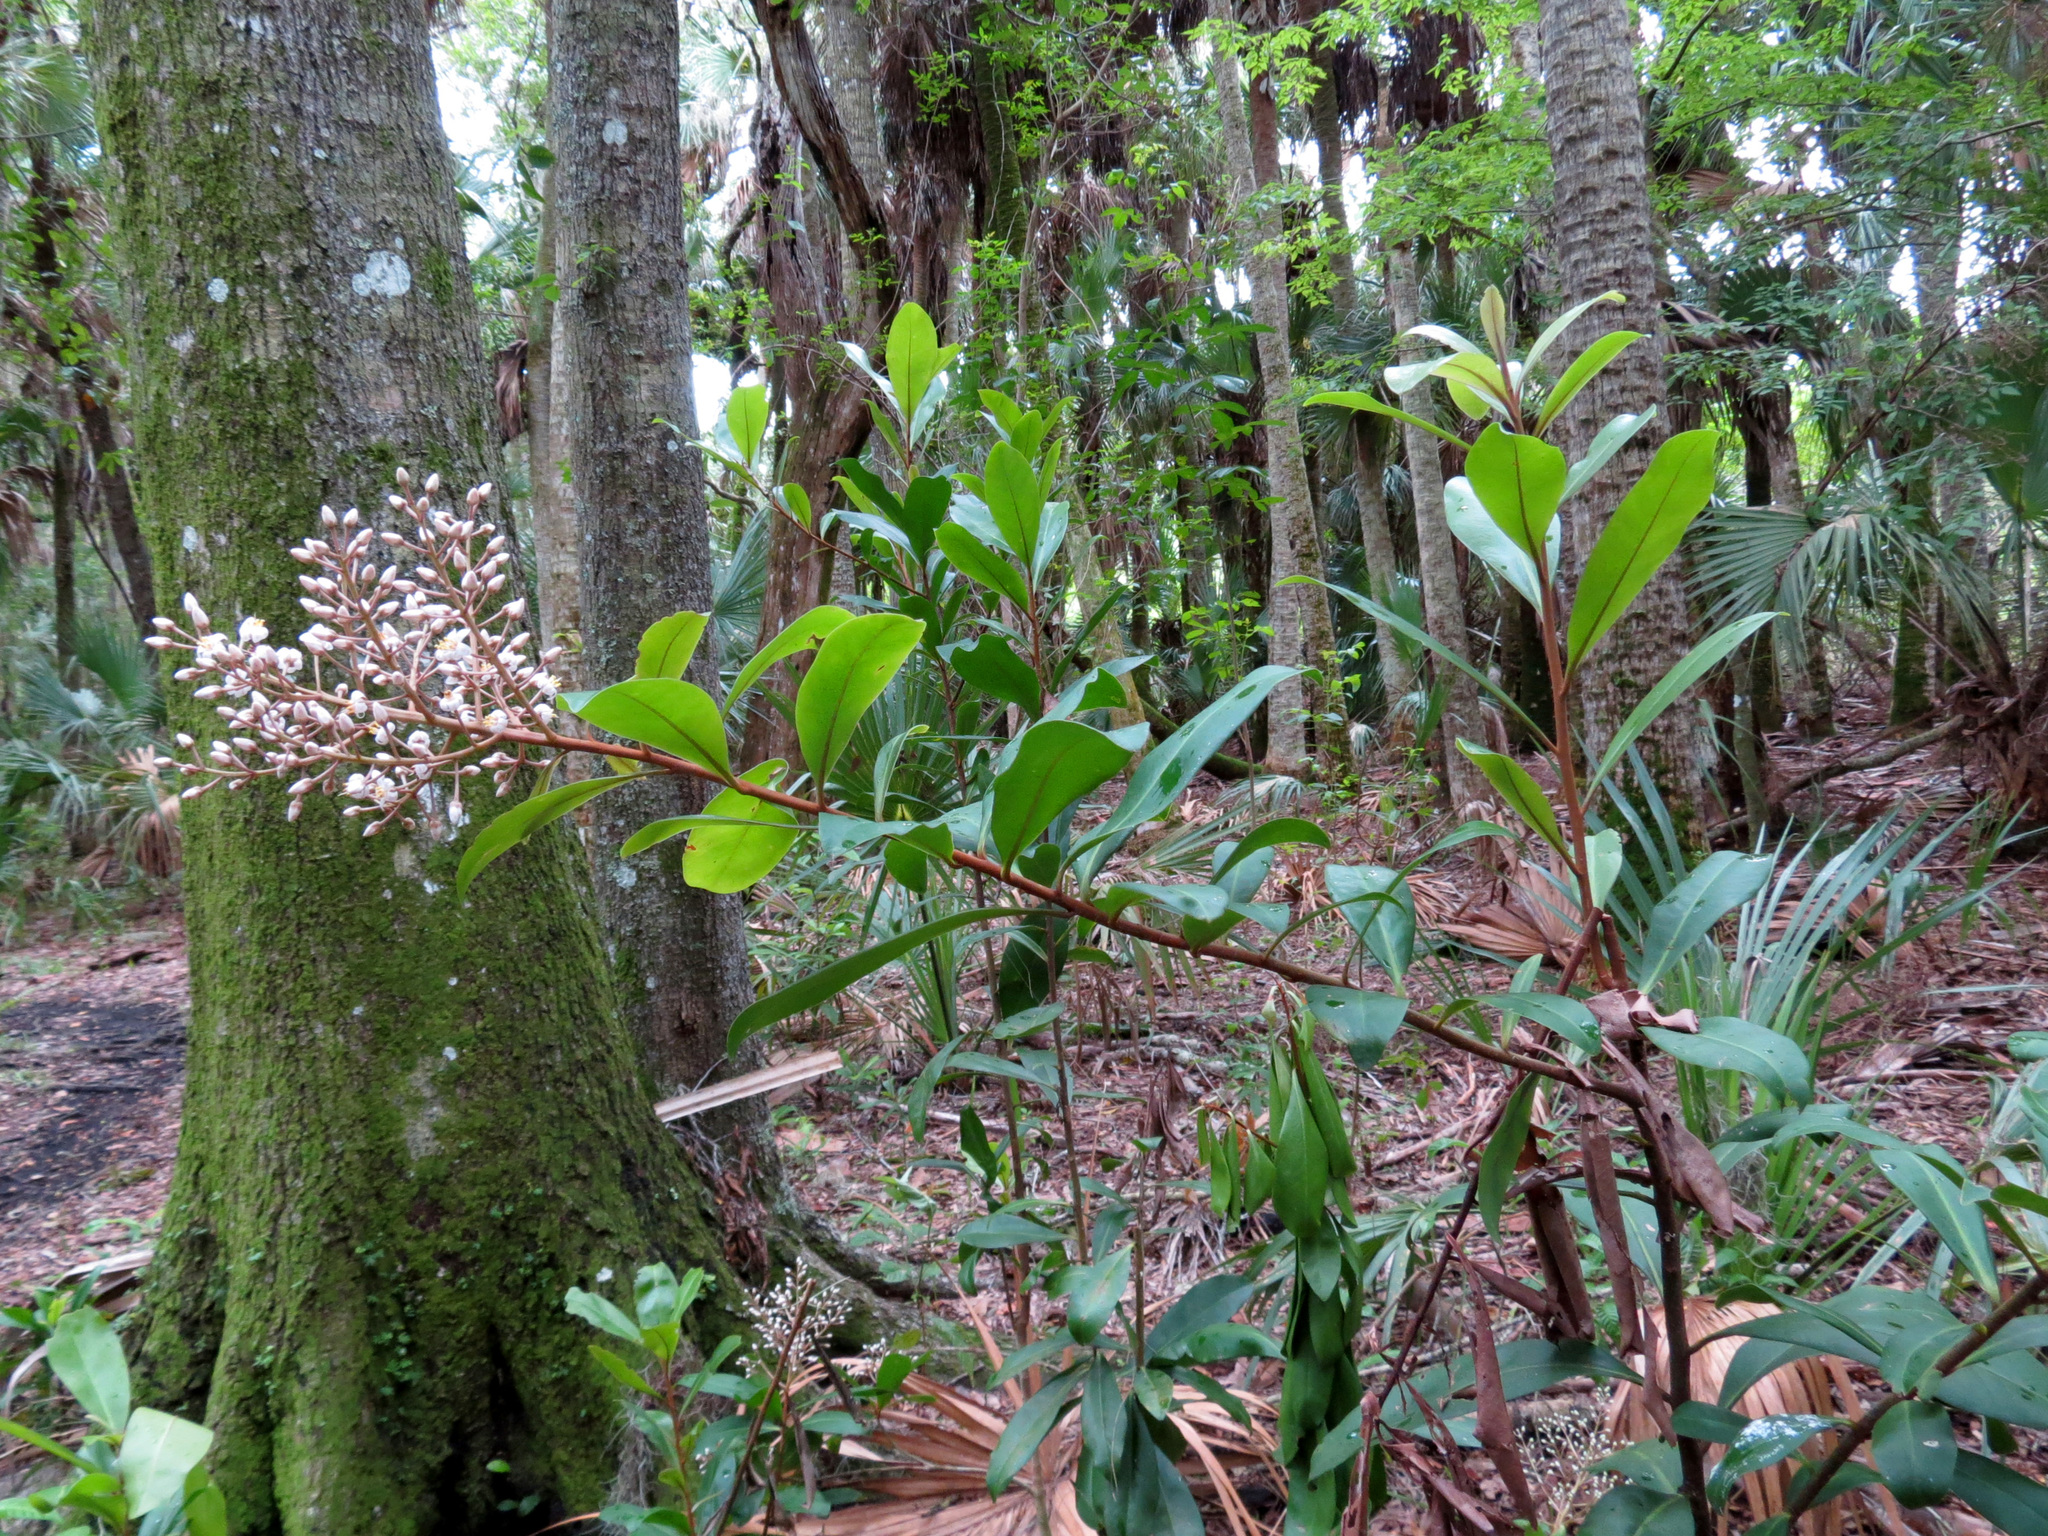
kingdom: Plantae
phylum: Tracheophyta
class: Magnoliopsida
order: Ericales
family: Primulaceae
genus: Ardisia
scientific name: Ardisia escallonioides
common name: Island marlberry
